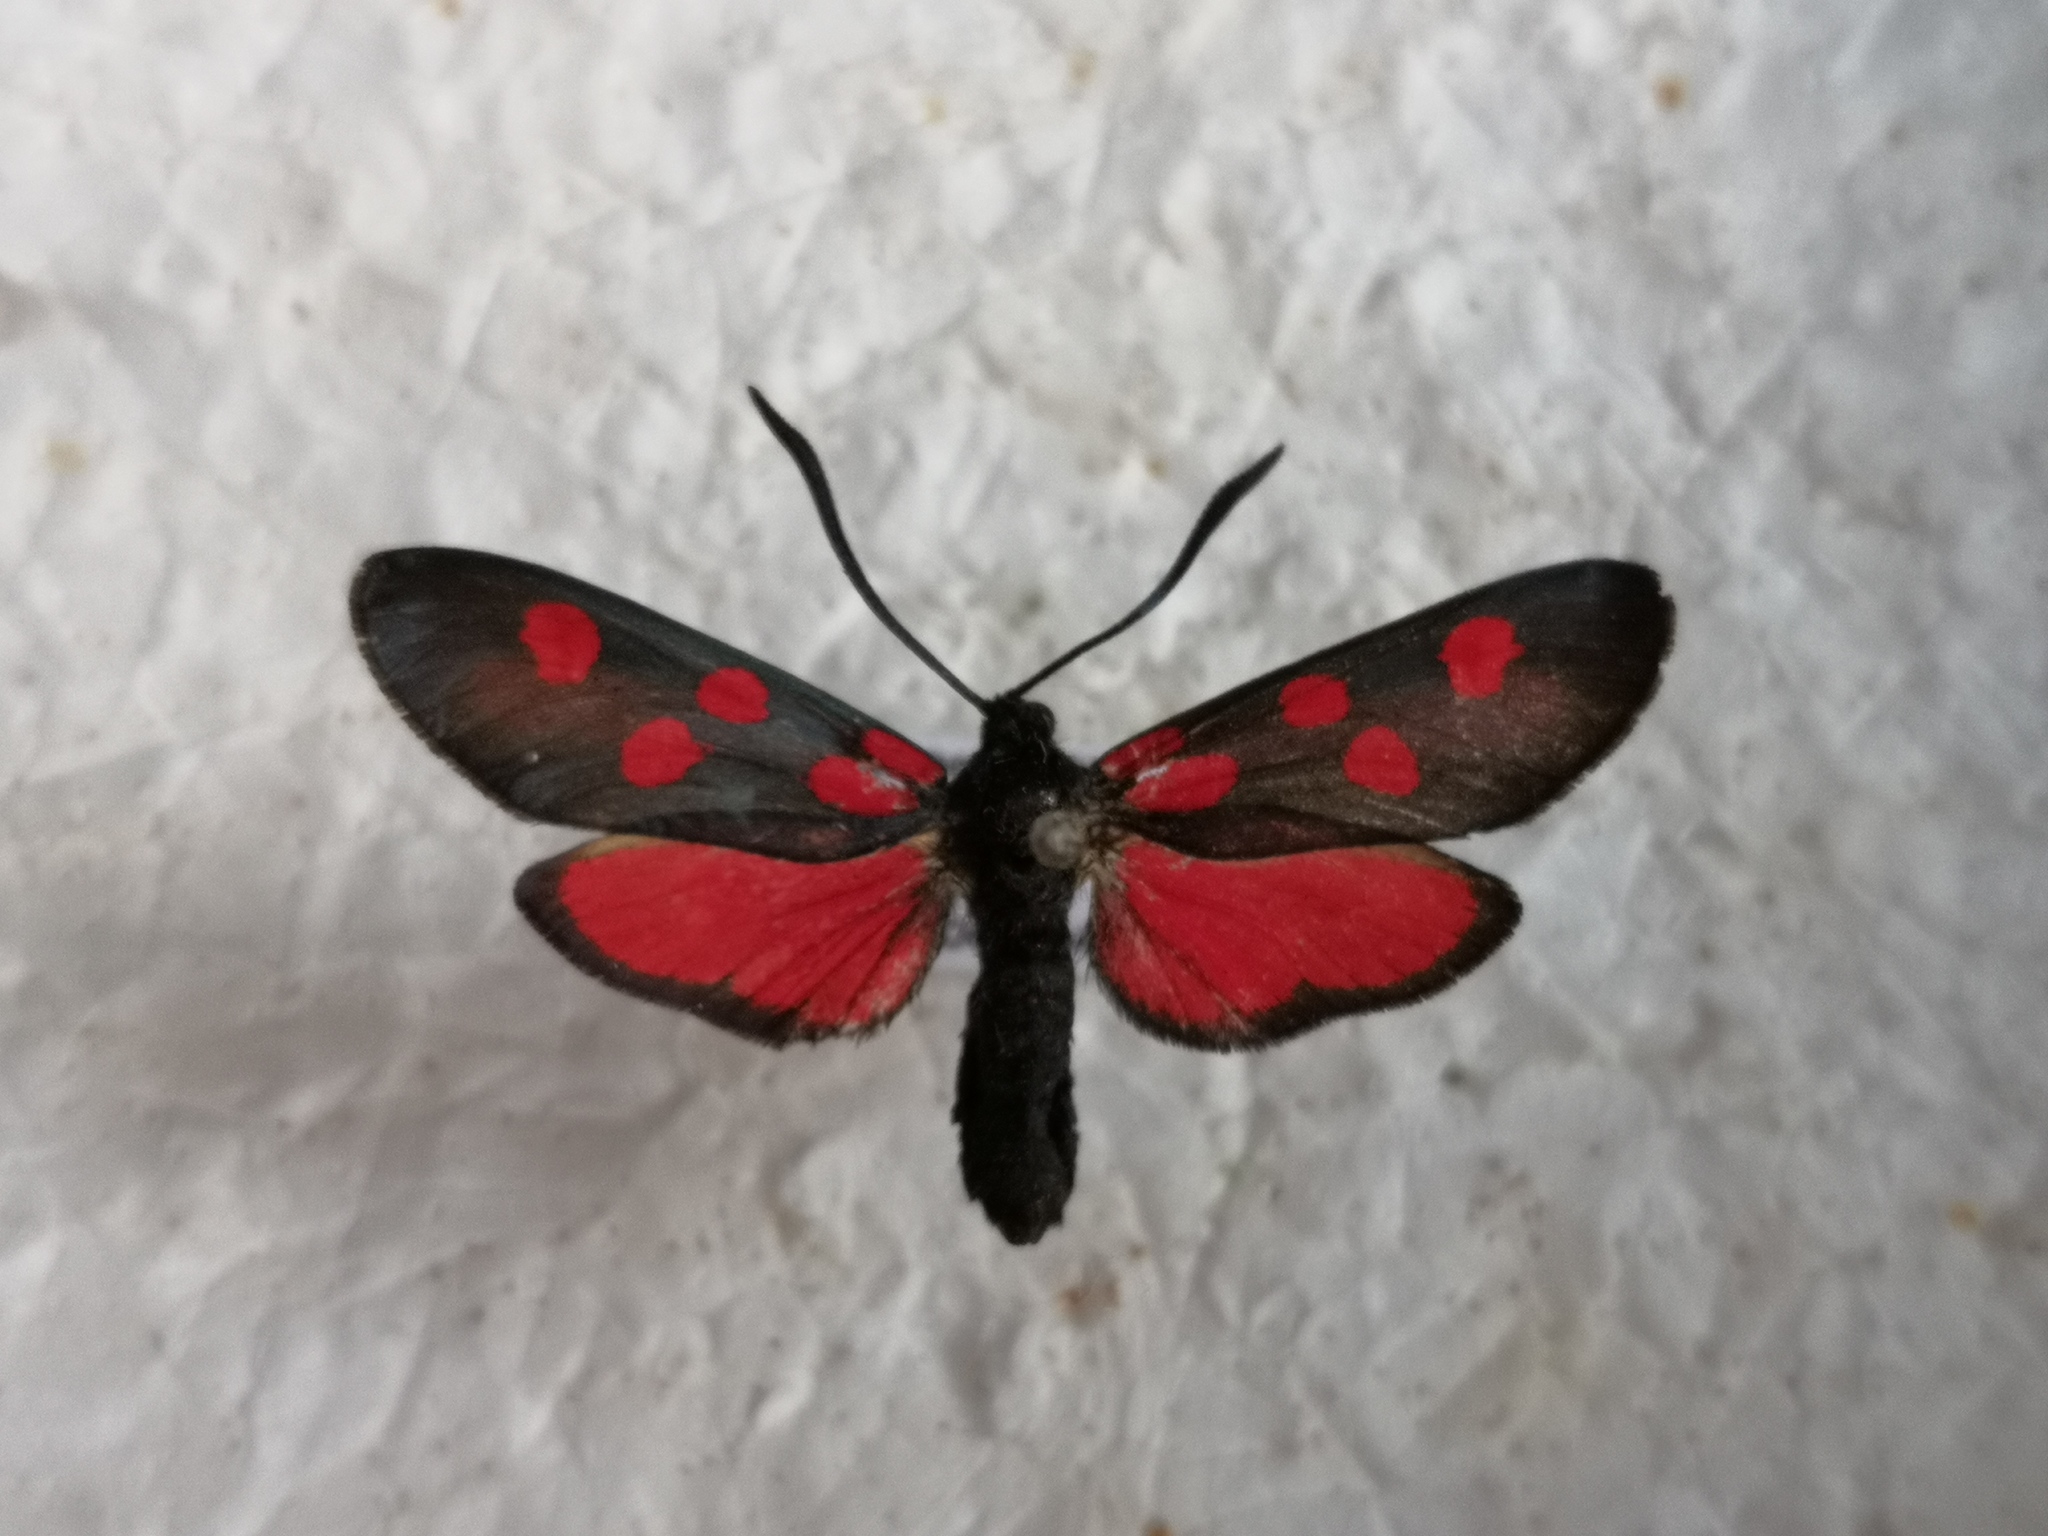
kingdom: Animalia
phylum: Arthropoda
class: Insecta
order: Lepidoptera
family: Zygaenidae
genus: Zygaena
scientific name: Zygaena angelicae
